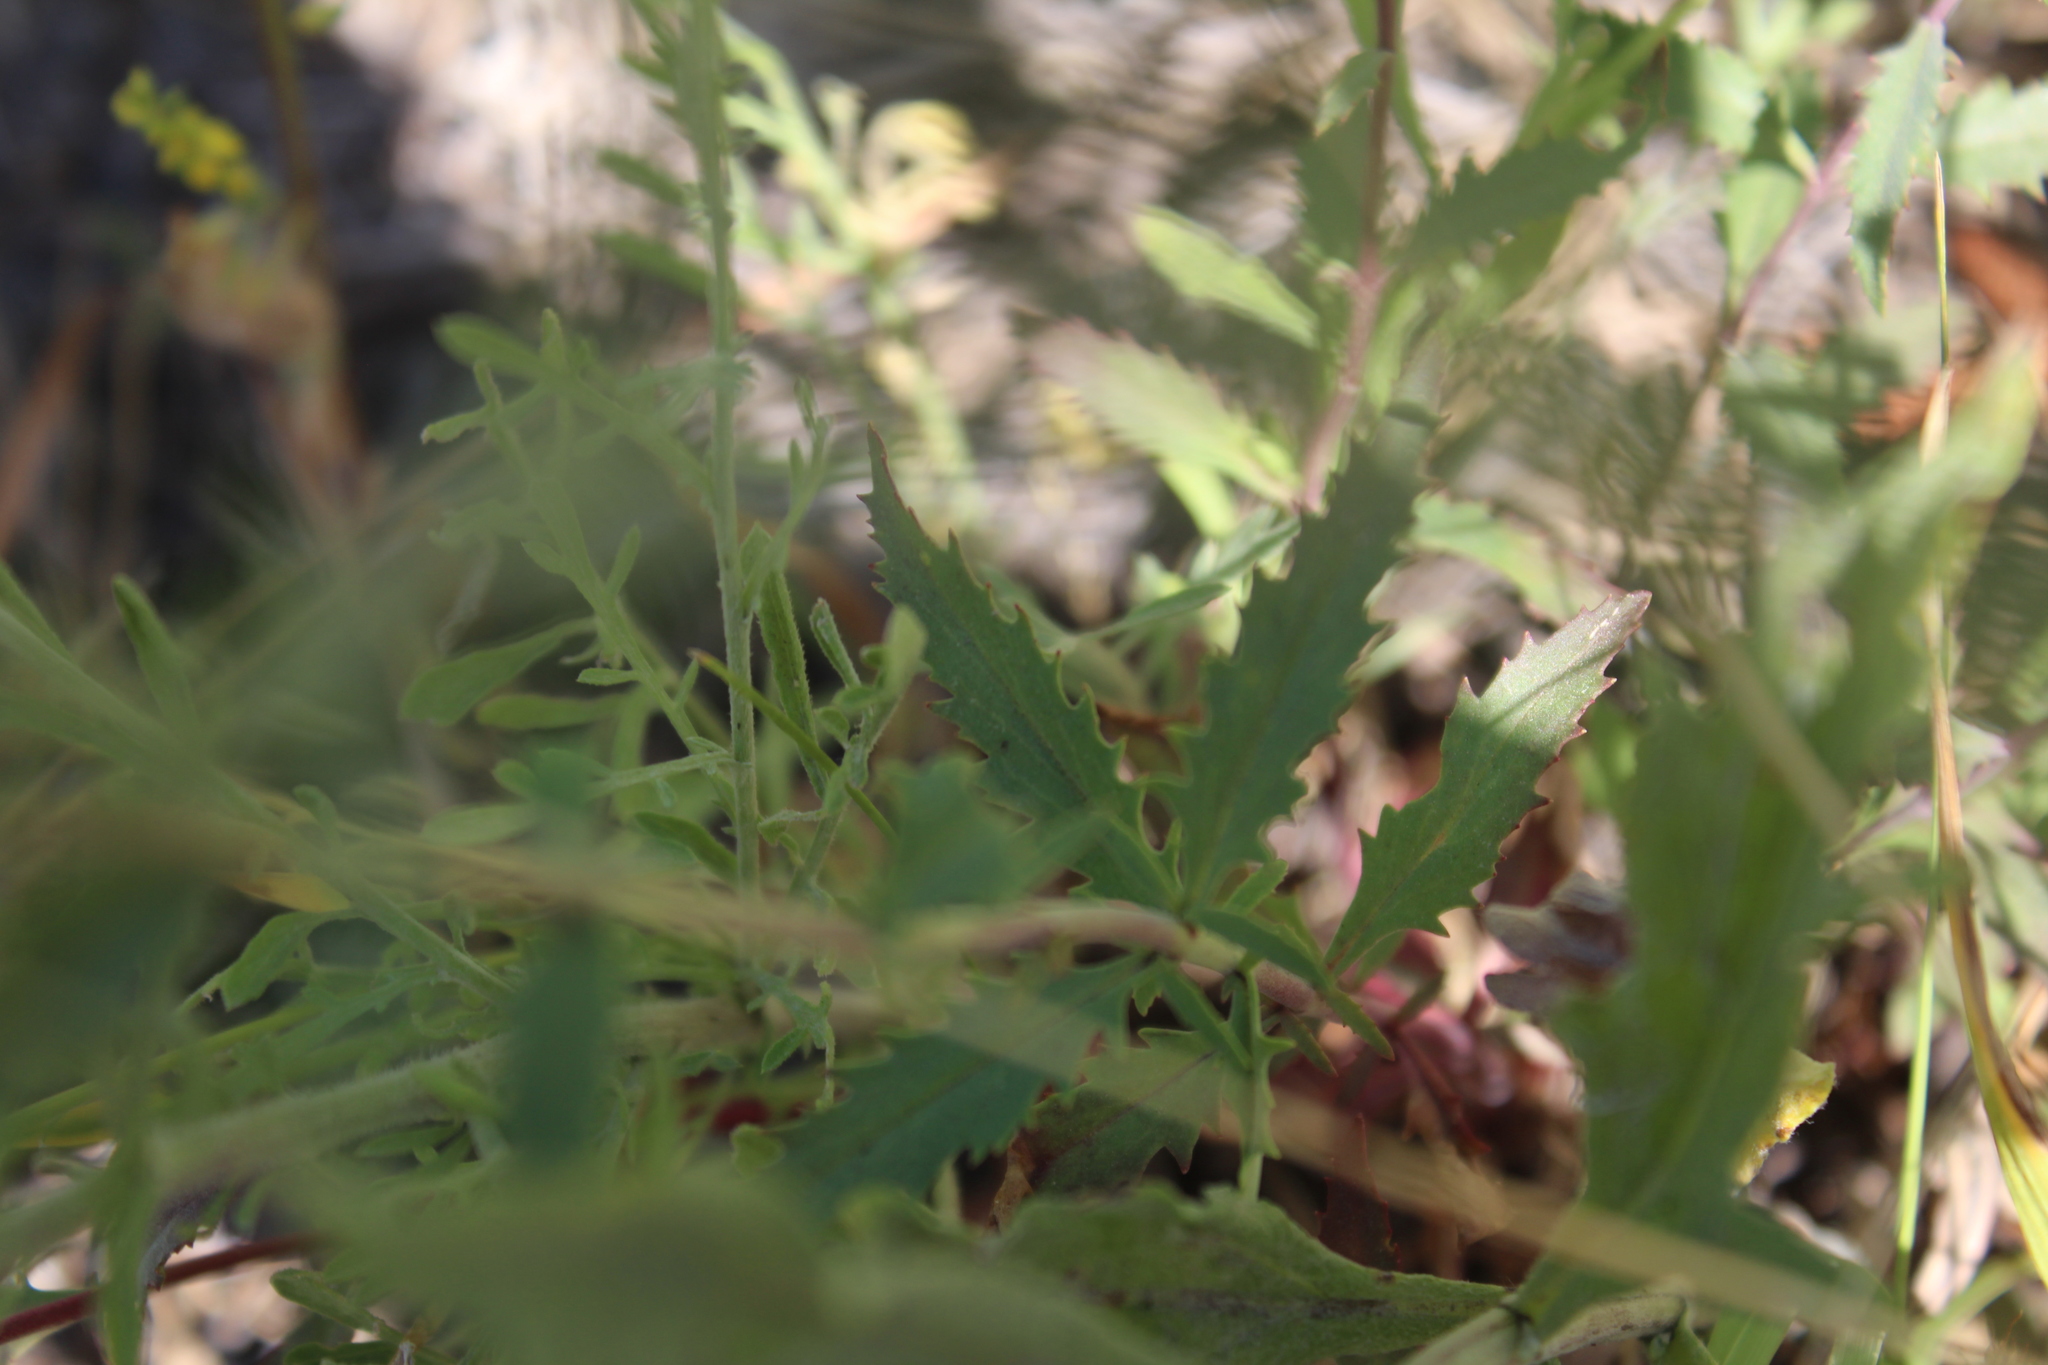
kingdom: Plantae
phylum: Tracheophyta
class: Magnoliopsida
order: Lamiales
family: Plantaginaceae
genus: Penstemon
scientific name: Penstemon richardsonii
